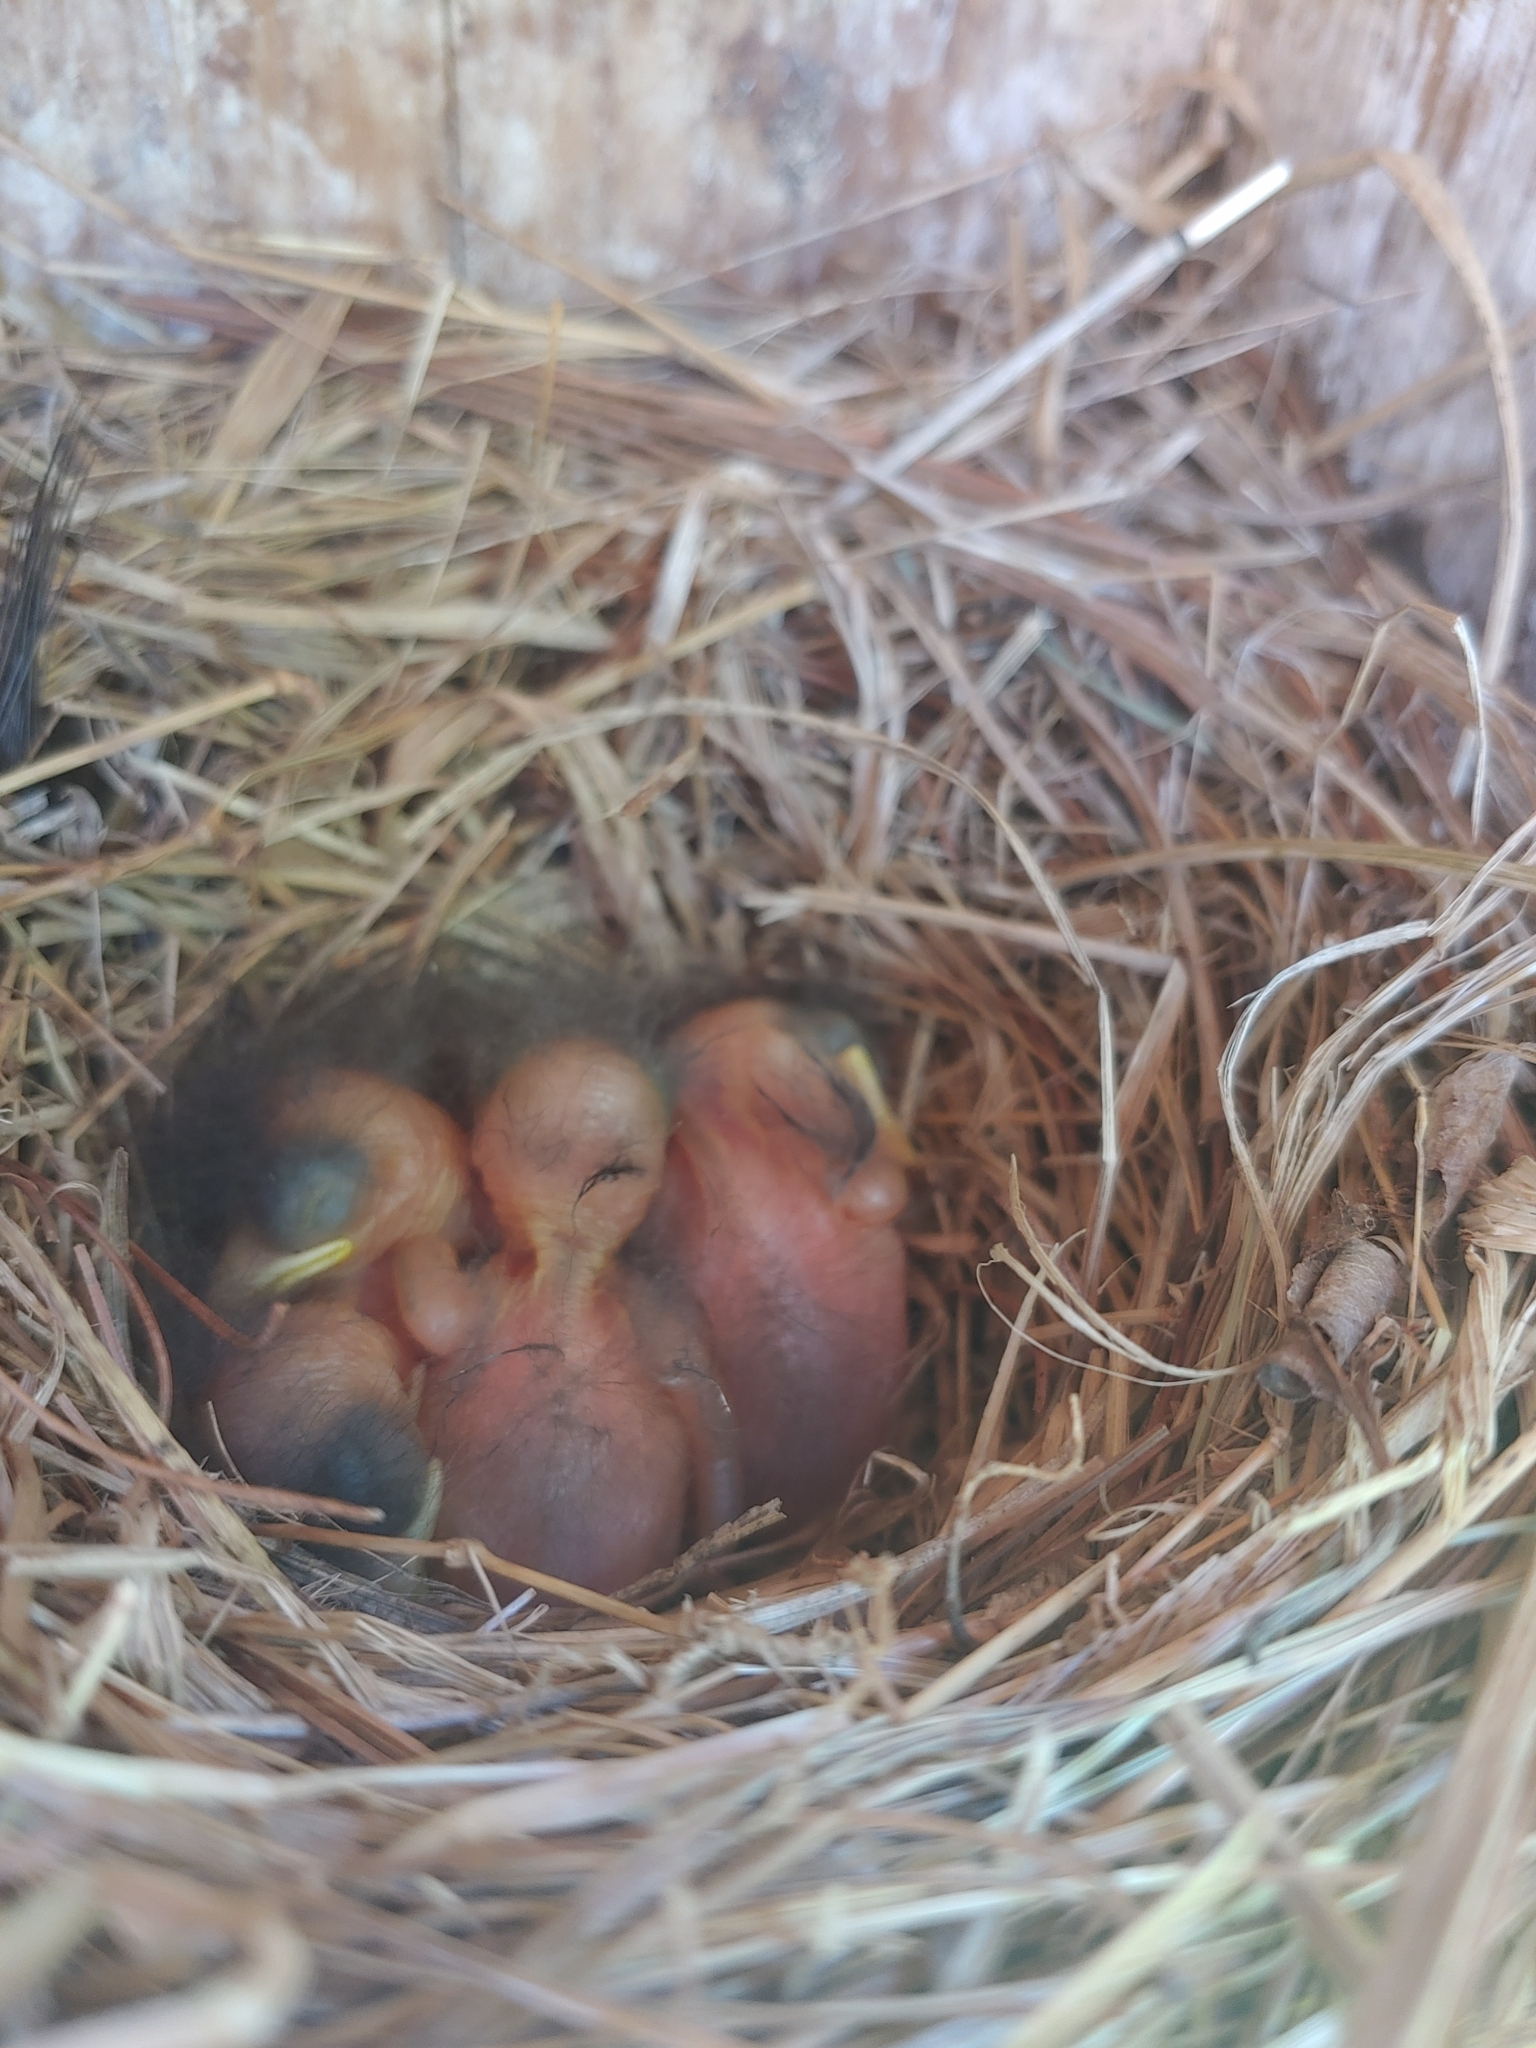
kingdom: Animalia
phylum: Chordata
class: Aves
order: Passeriformes
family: Turdidae
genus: Sialia
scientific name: Sialia sialis
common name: Eastern bluebird
